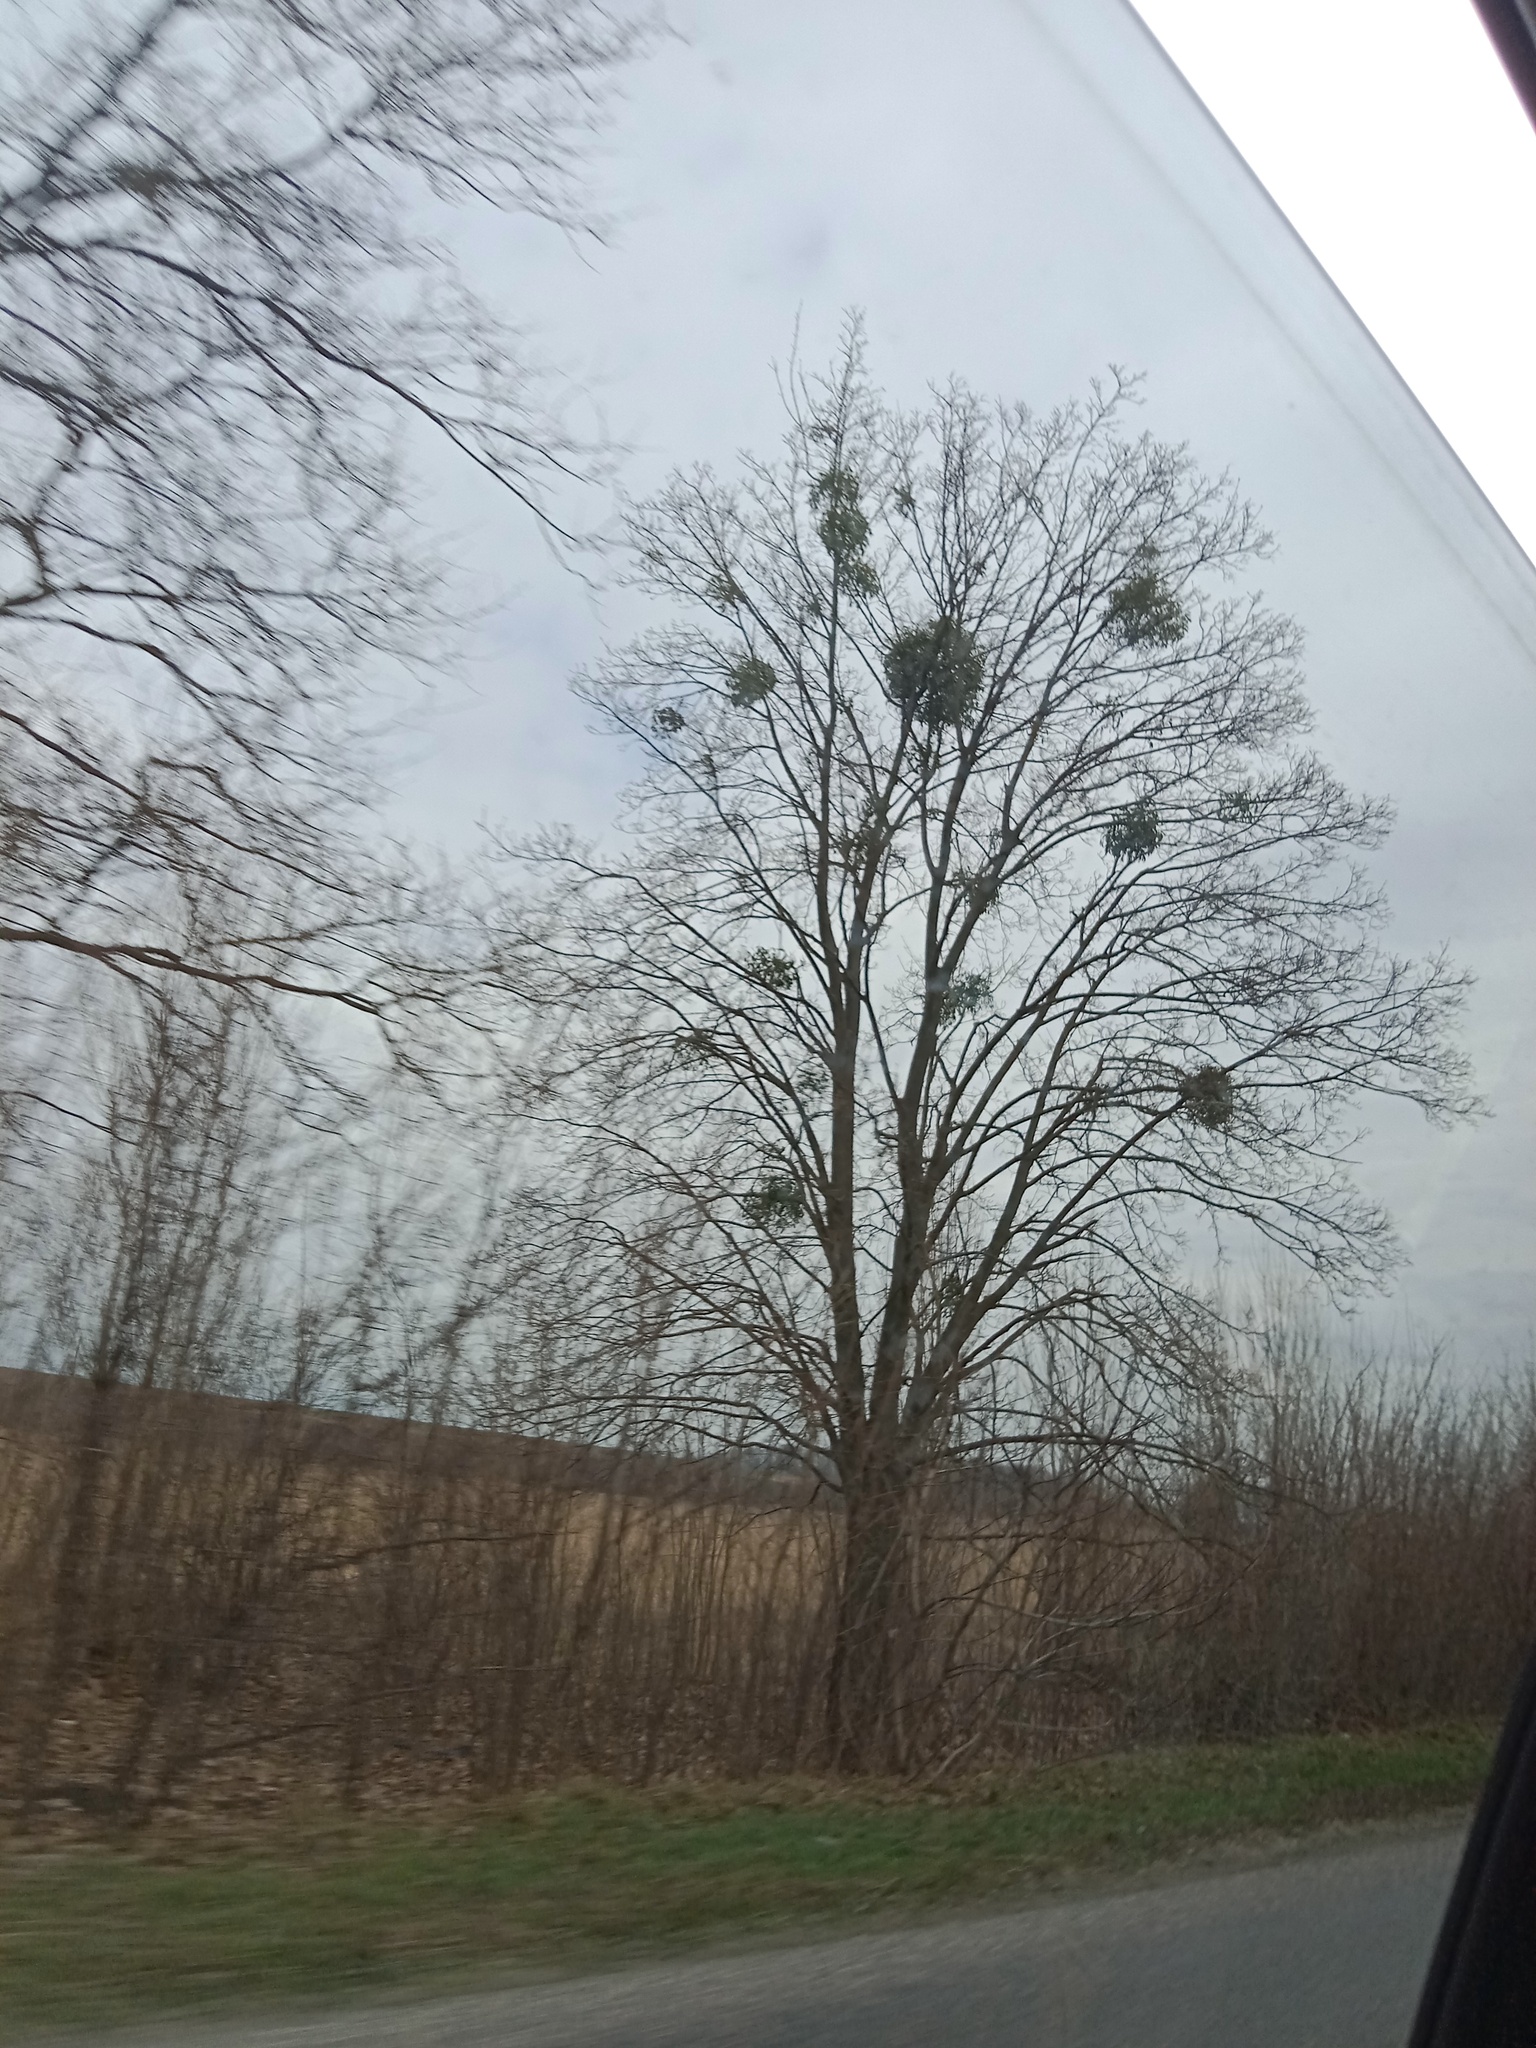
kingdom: Plantae
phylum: Tracheophyta
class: Magnoliopsida
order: Santalales
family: Viscaceae
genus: Viscum
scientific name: Viscum album
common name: Mistletoe
